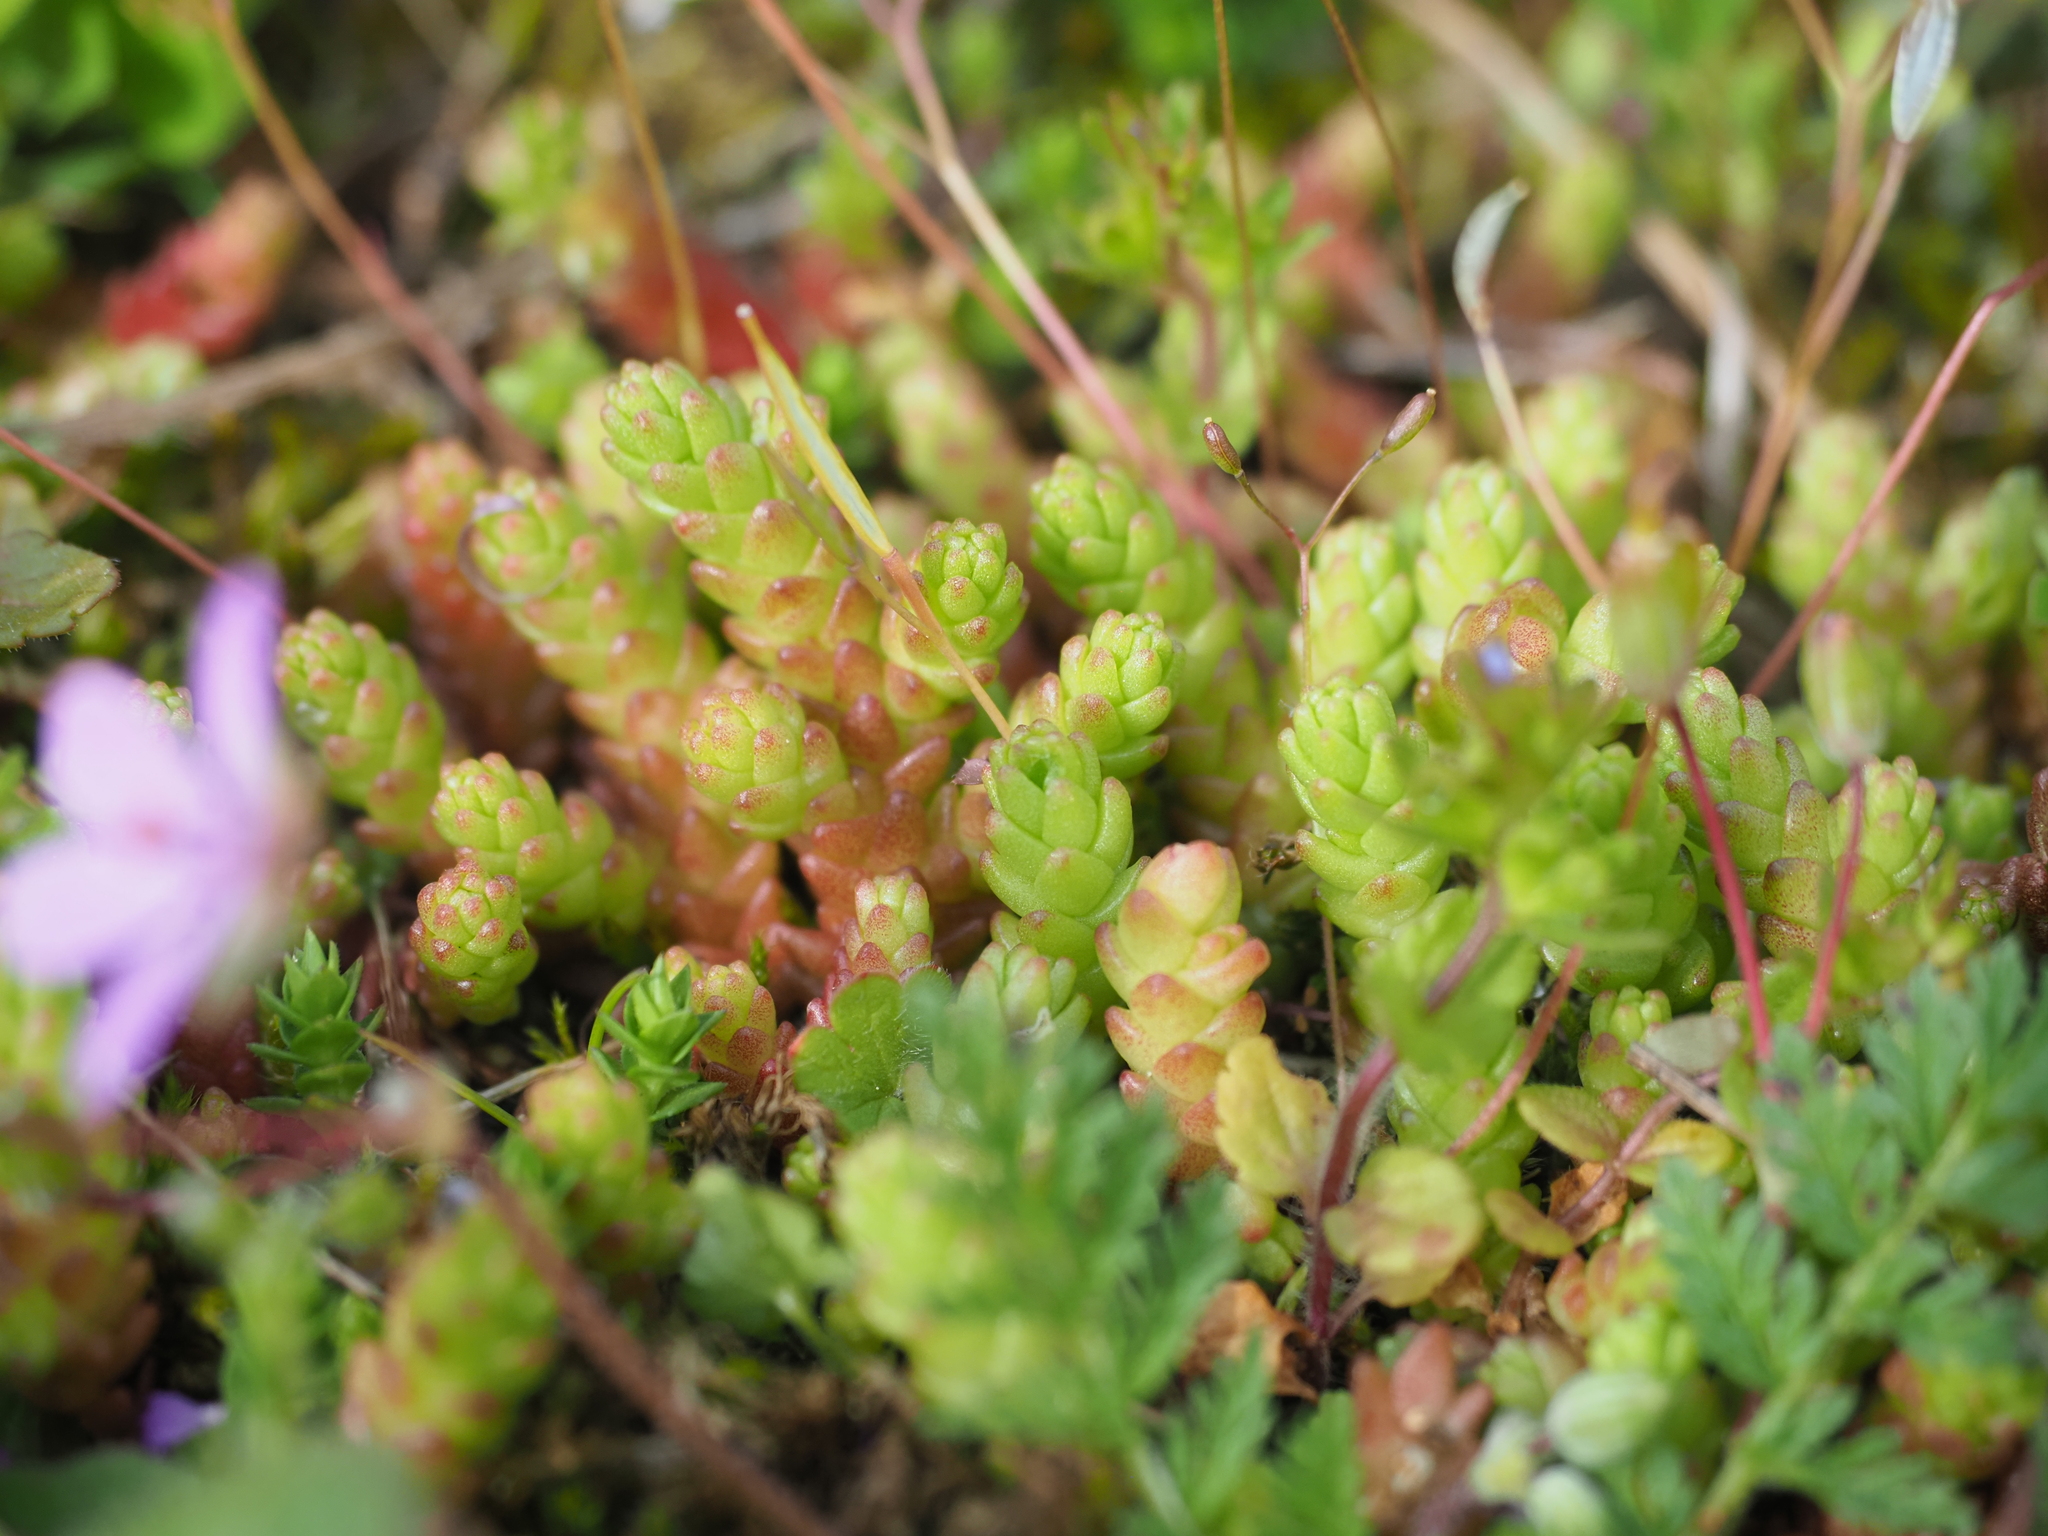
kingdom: Plantae
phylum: Tracheophyta
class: Magnoliopsida
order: Saxifragales
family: Crassulaceae
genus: Sedum
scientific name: Sedum acre
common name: Biting stonecrop
